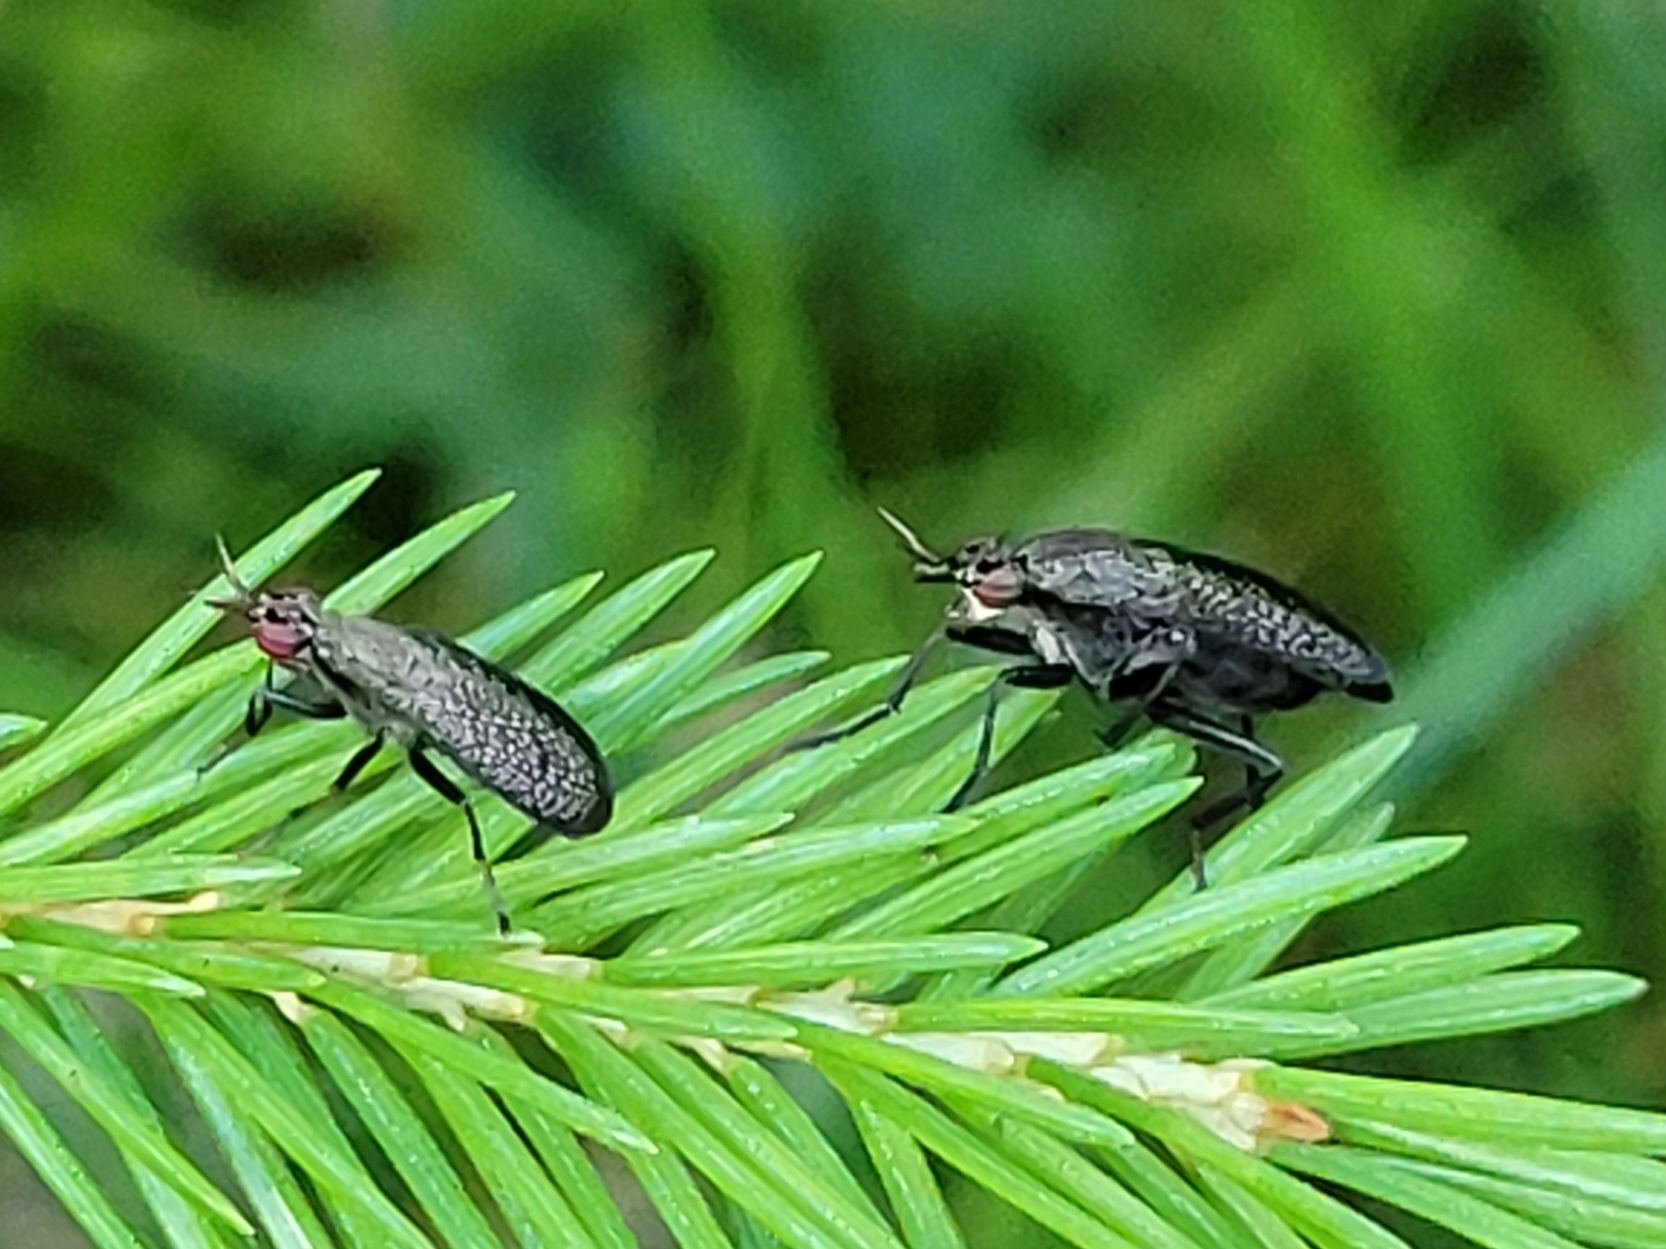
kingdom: Animalia
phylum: Arthropoda
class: Insecta
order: Diptera
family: Sciomyzidae
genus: Coremacera
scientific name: Coremacera marginata
